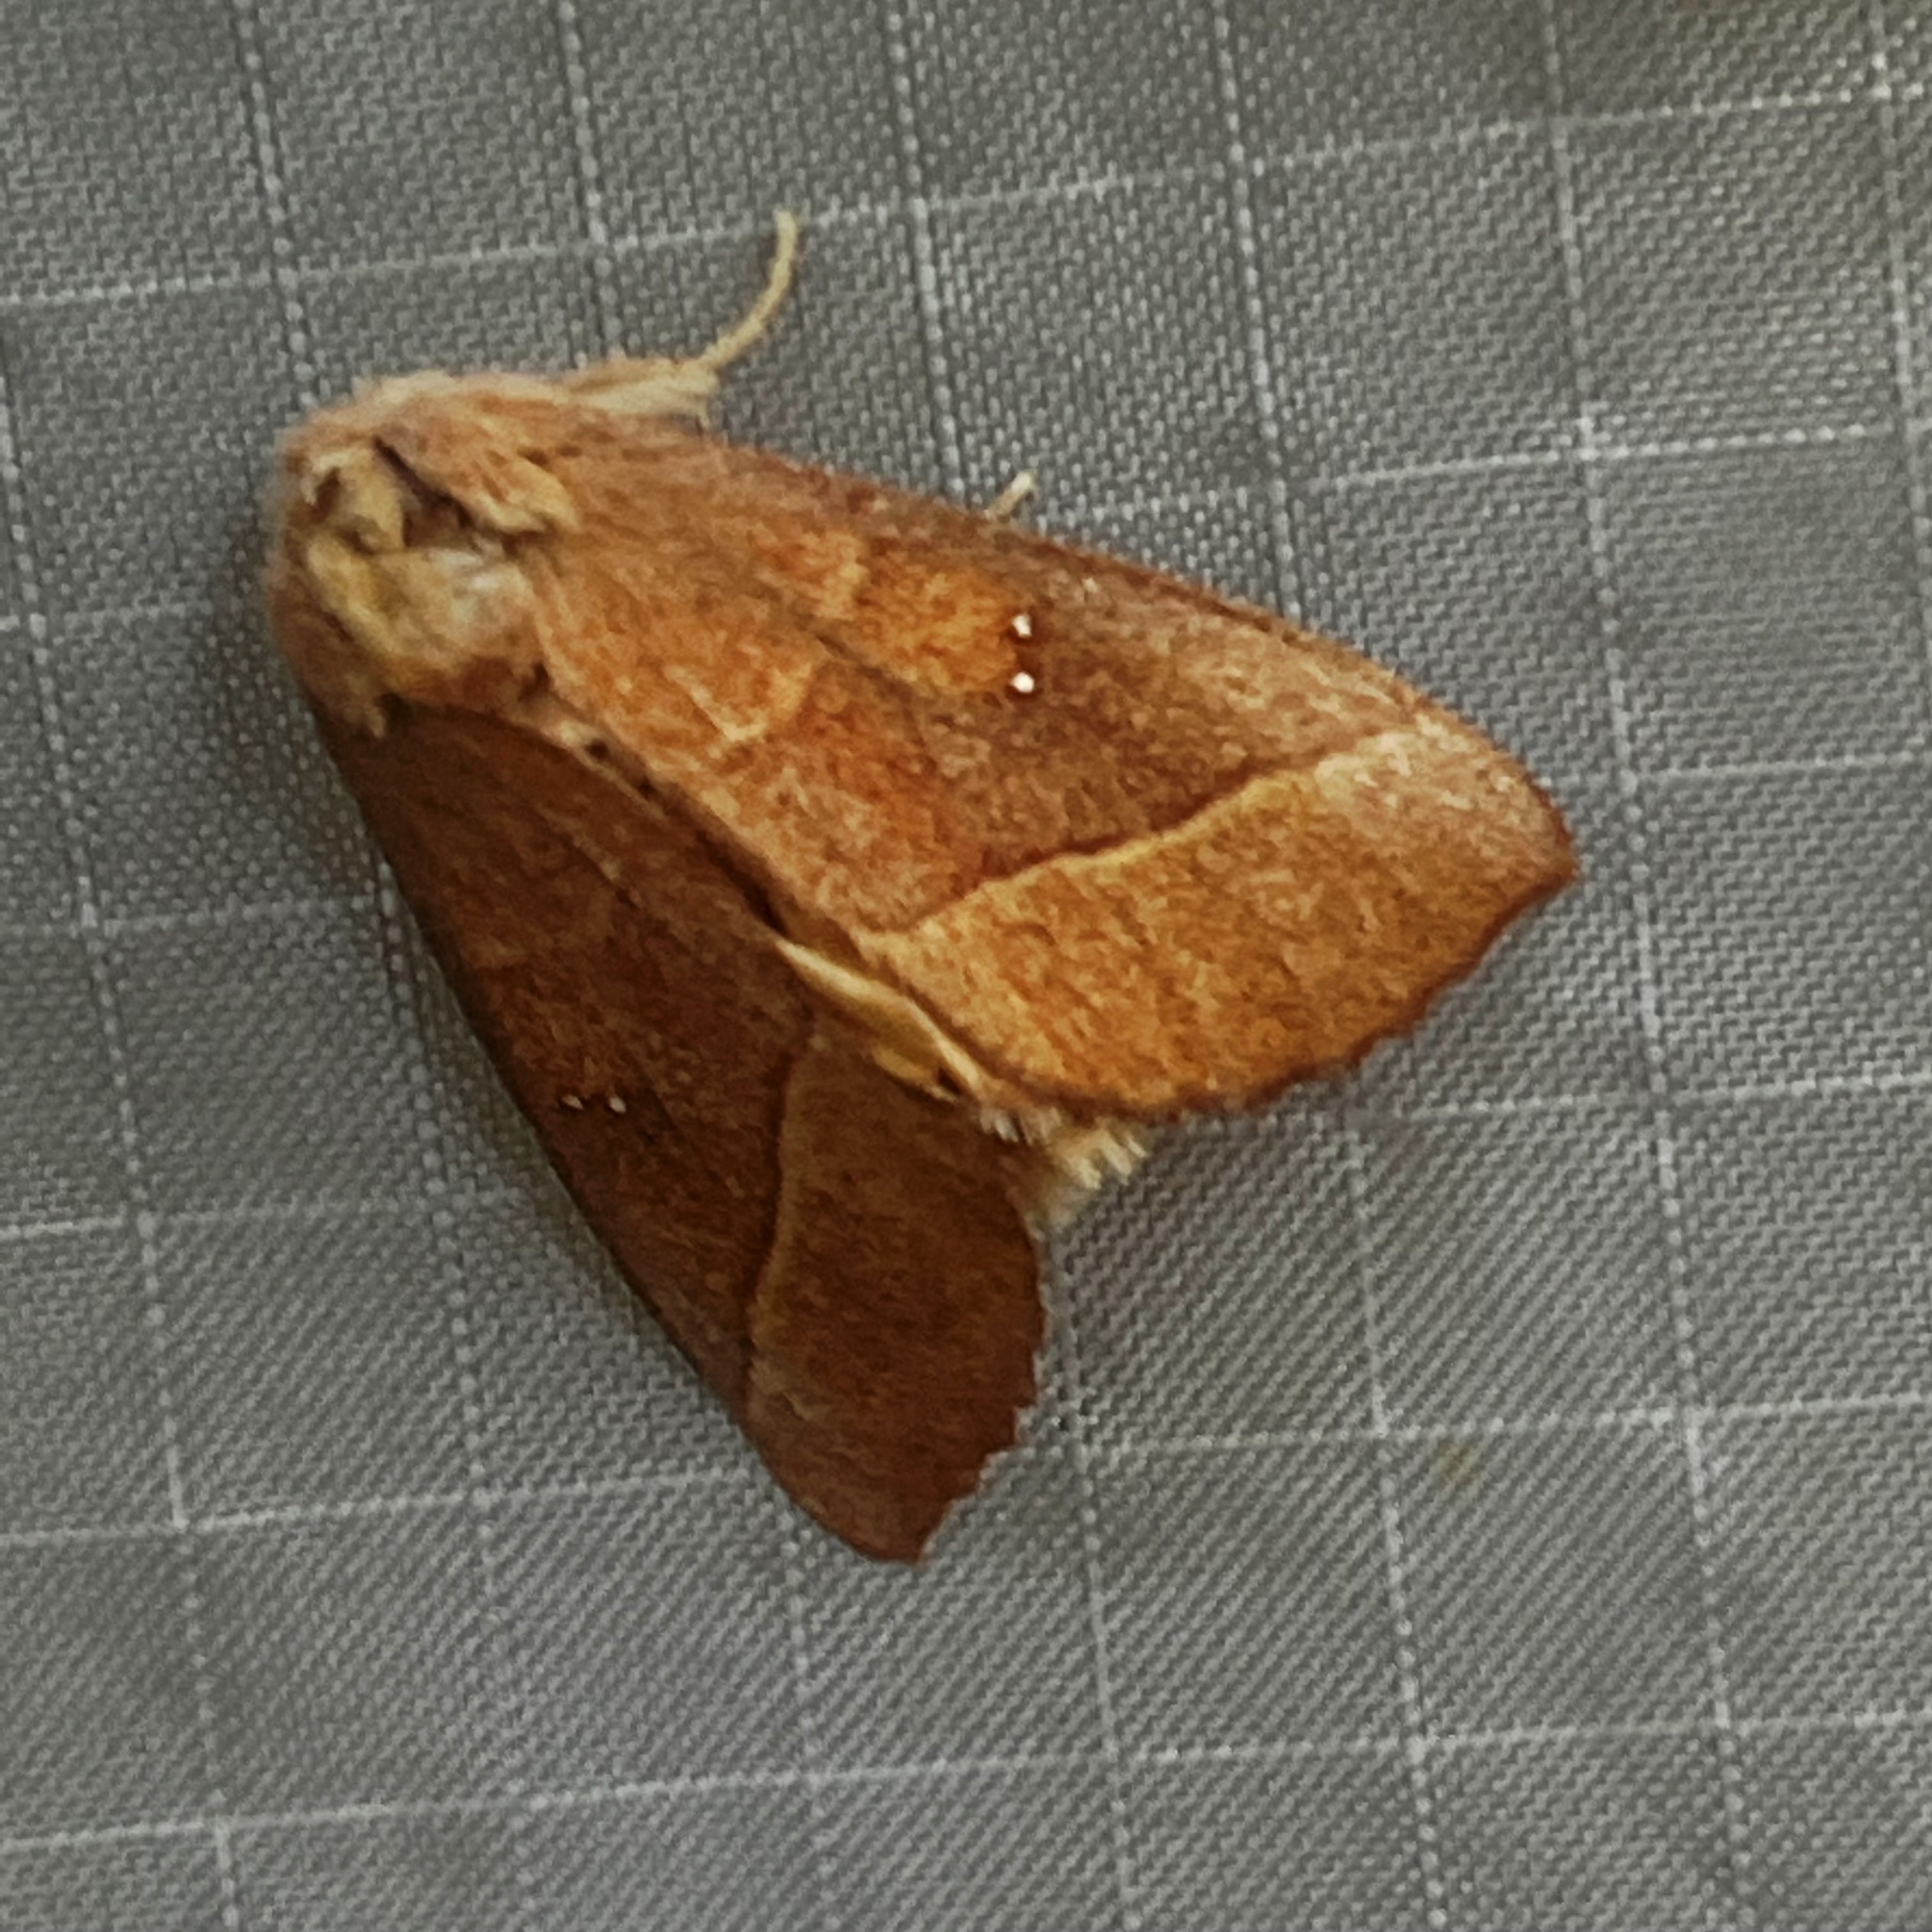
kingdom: Animalia
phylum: Arthropoda
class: Insecta
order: Lepidoptera
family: Notodontidae
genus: Nadata
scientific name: Nadata gibbosa
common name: White-dotted prominent
